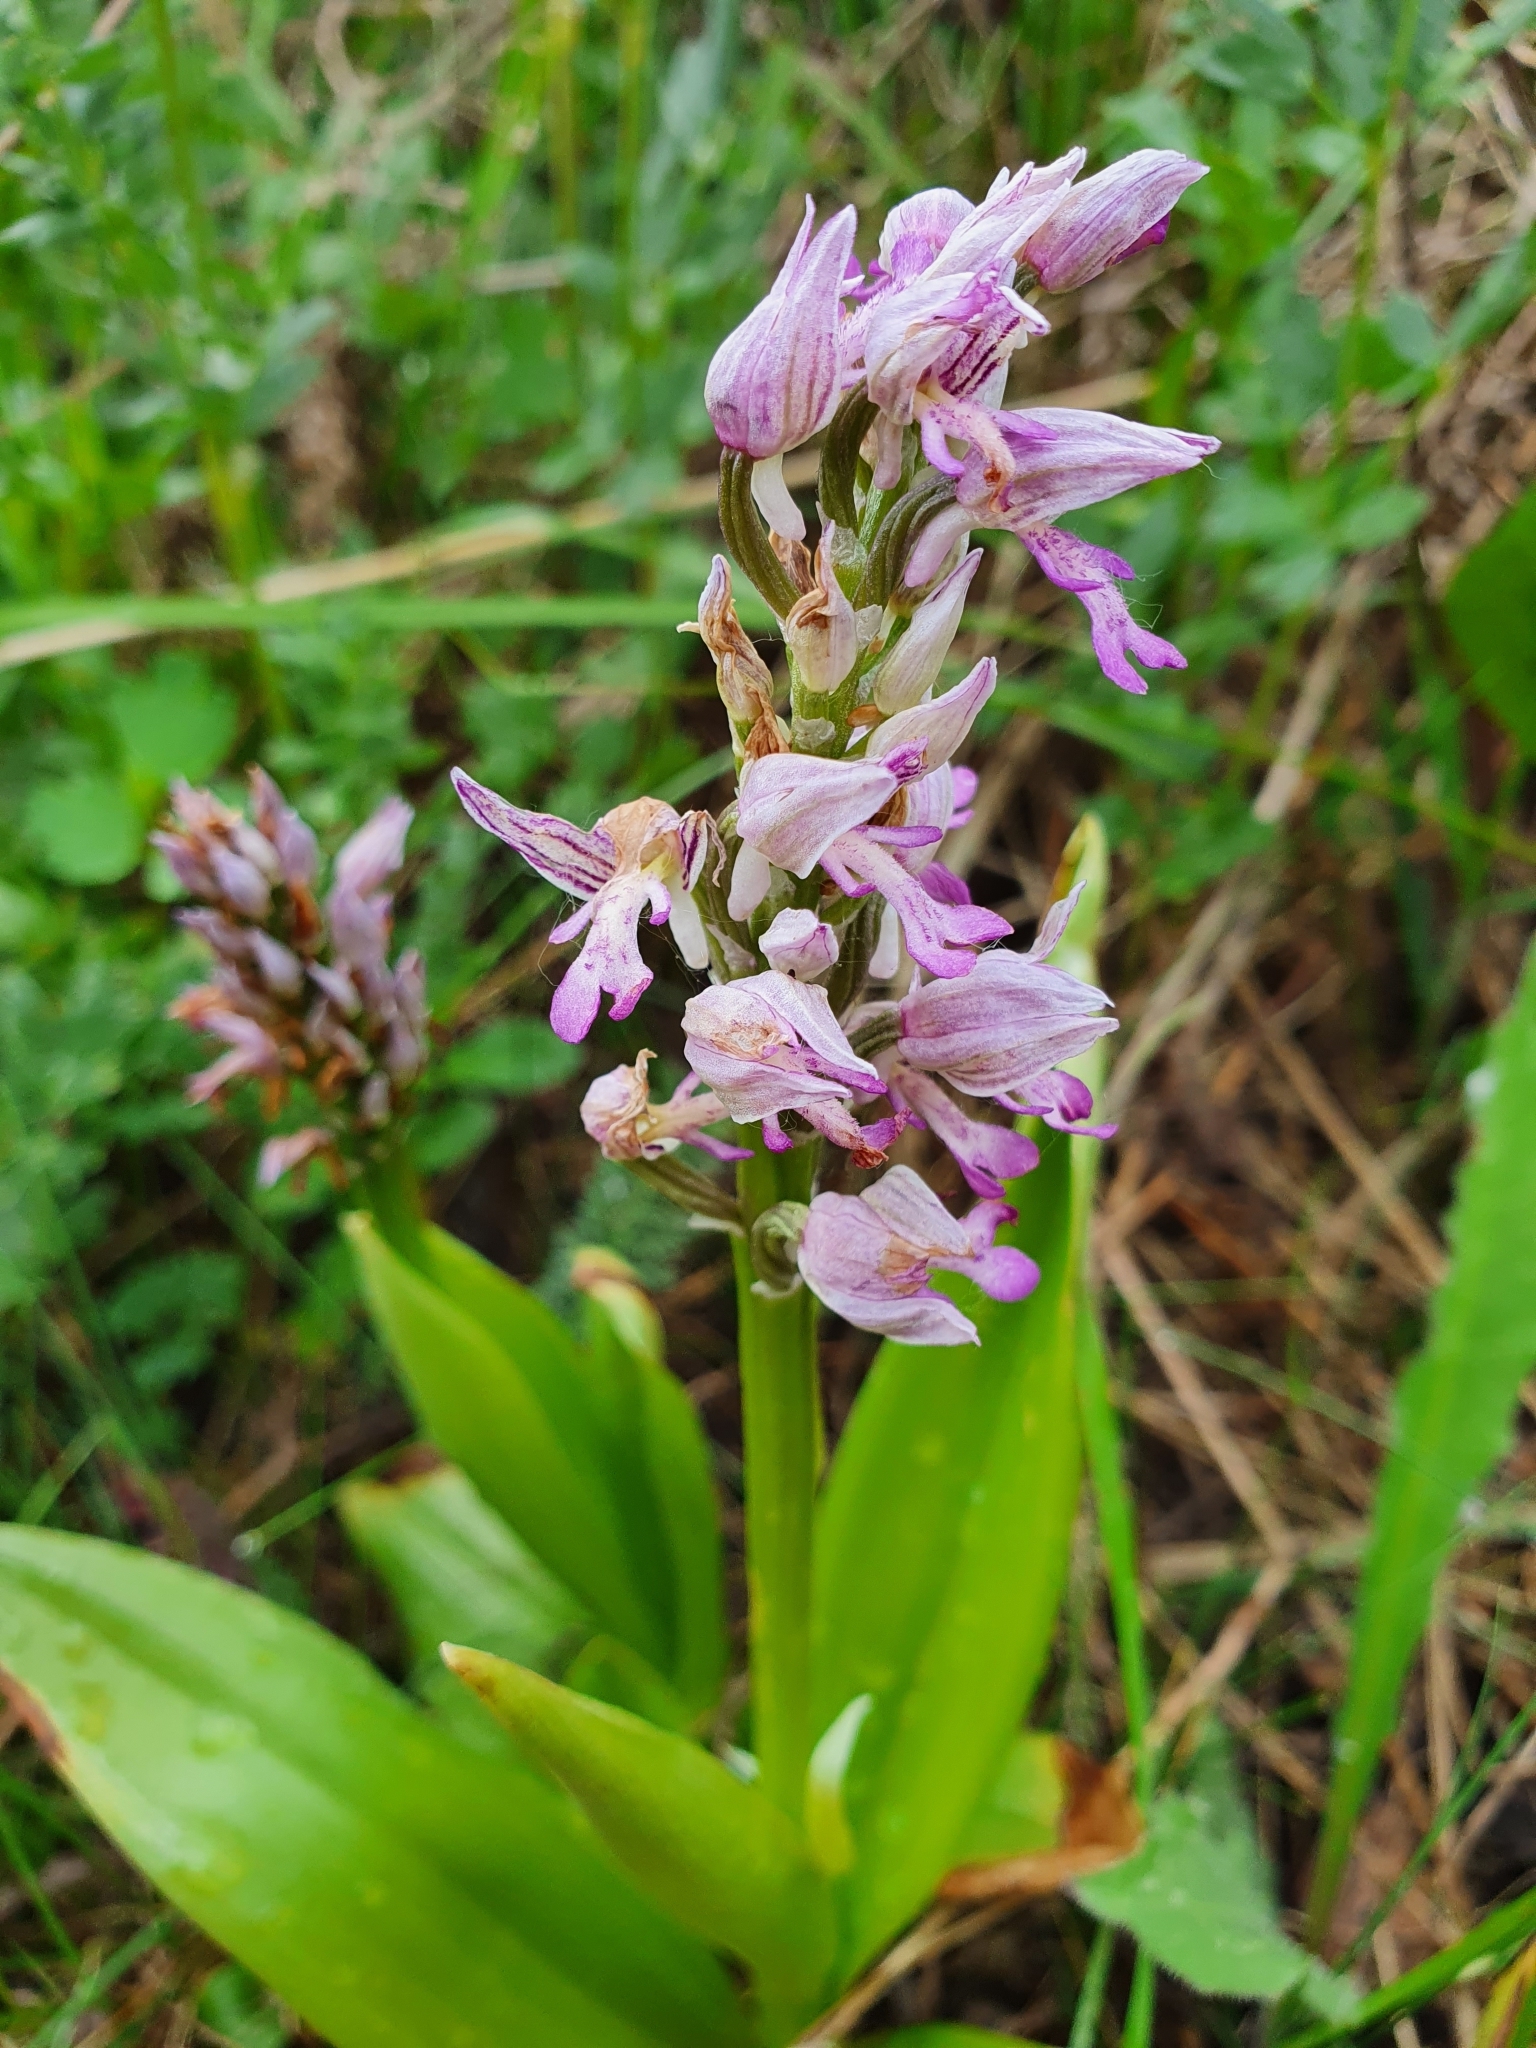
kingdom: Plantae
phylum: Tracheophyta
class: Liliopsida
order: Asparagales
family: Orchidaceae
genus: Orchis
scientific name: Orchis militaris
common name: Military orchid
